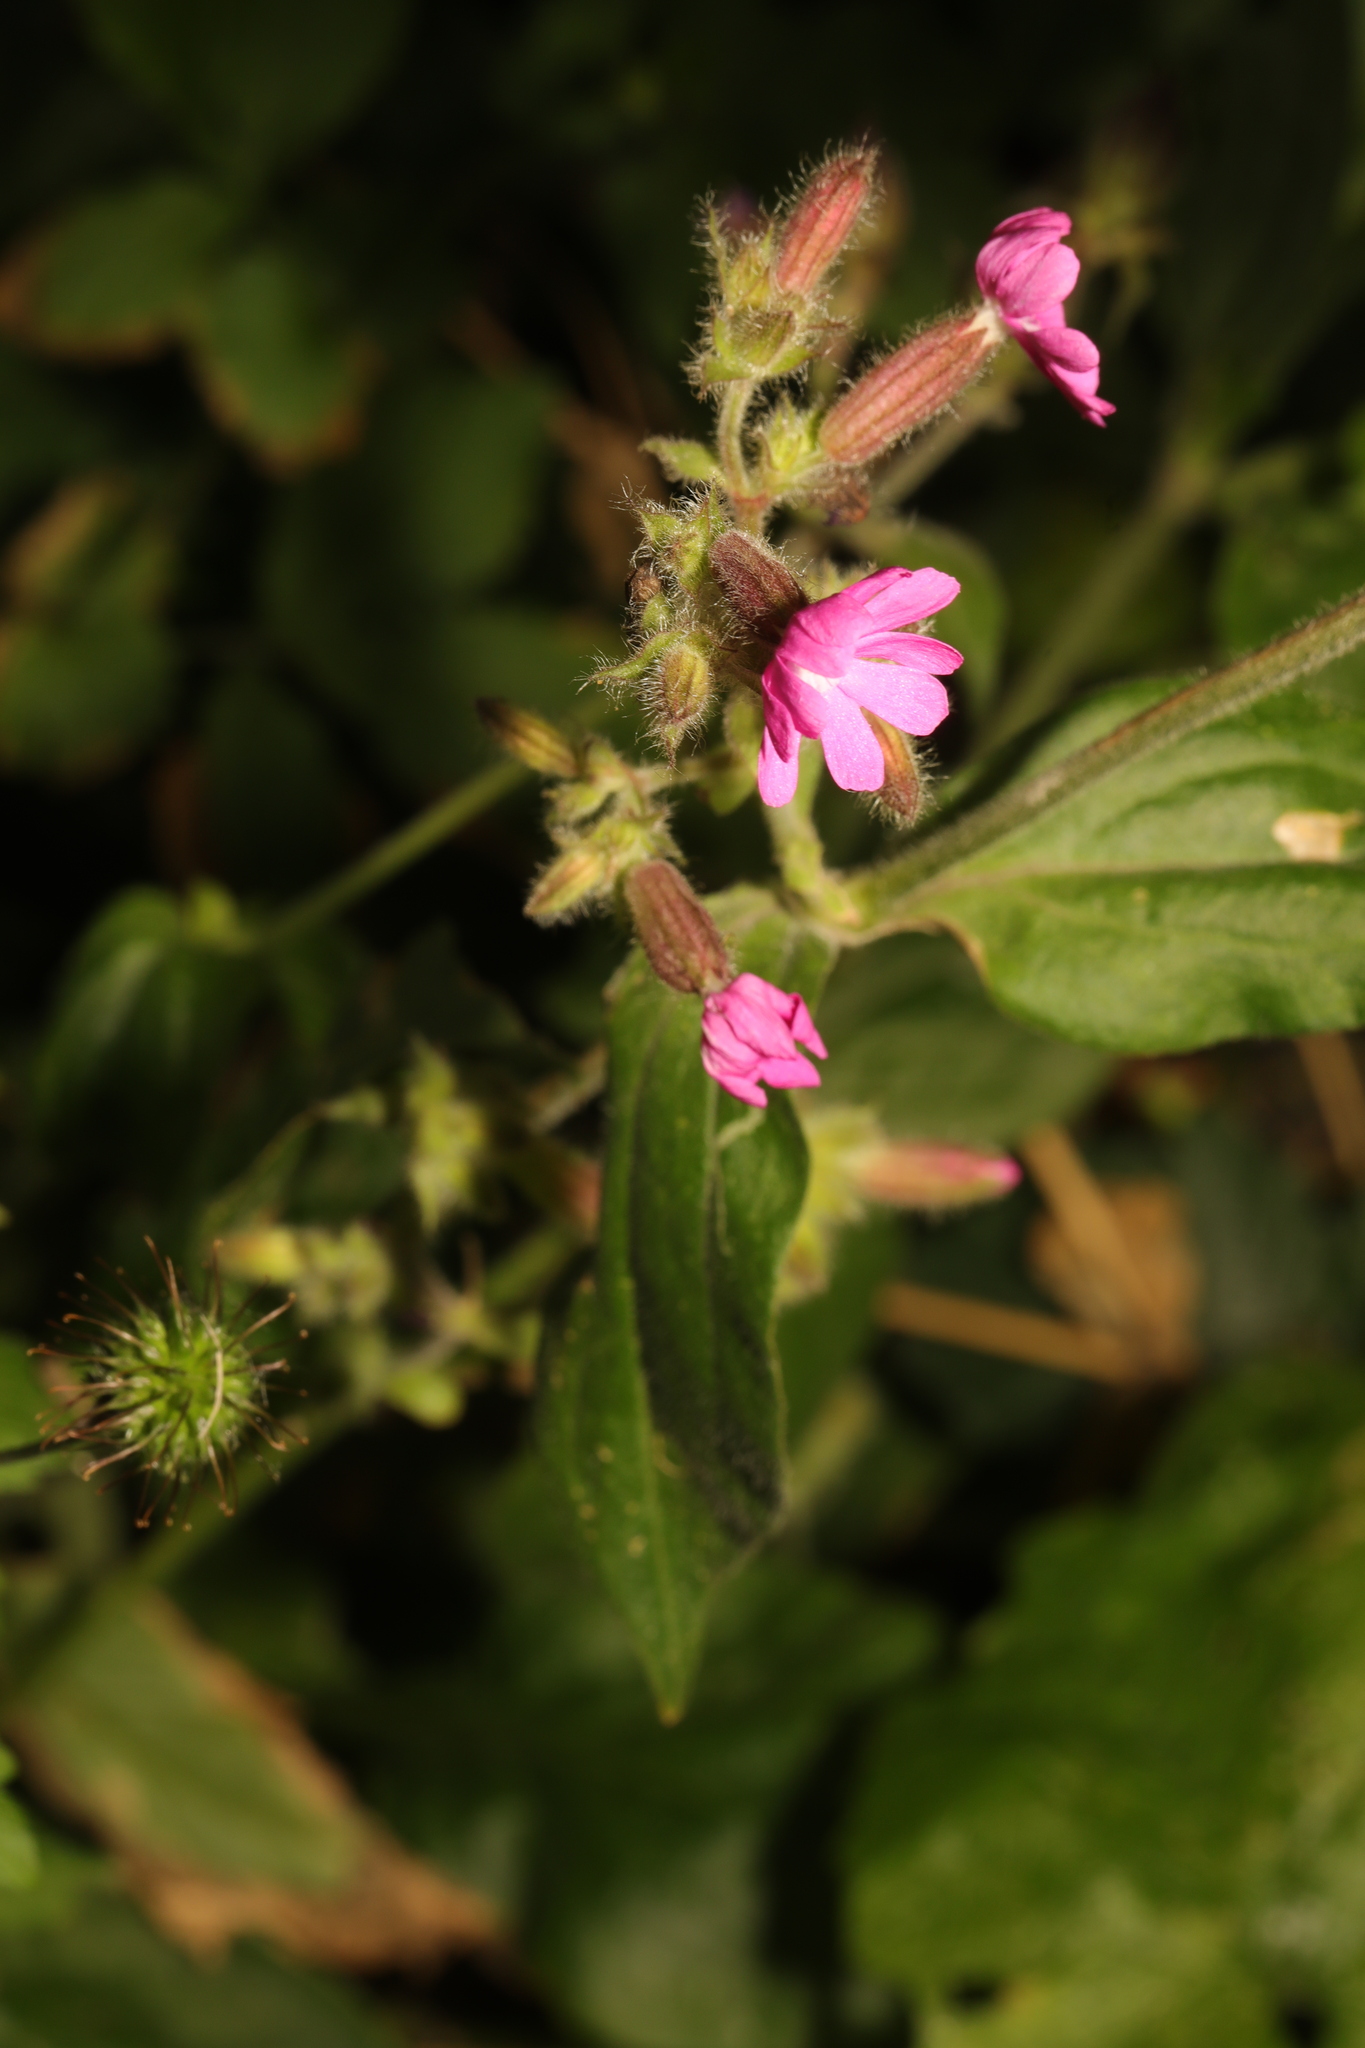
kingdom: Plantae
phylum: Tracheophyta
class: Magnoliopsida
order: Caryophyllales
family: Caryophyllaceae
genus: Silene
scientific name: Silene dioica
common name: Red campion
